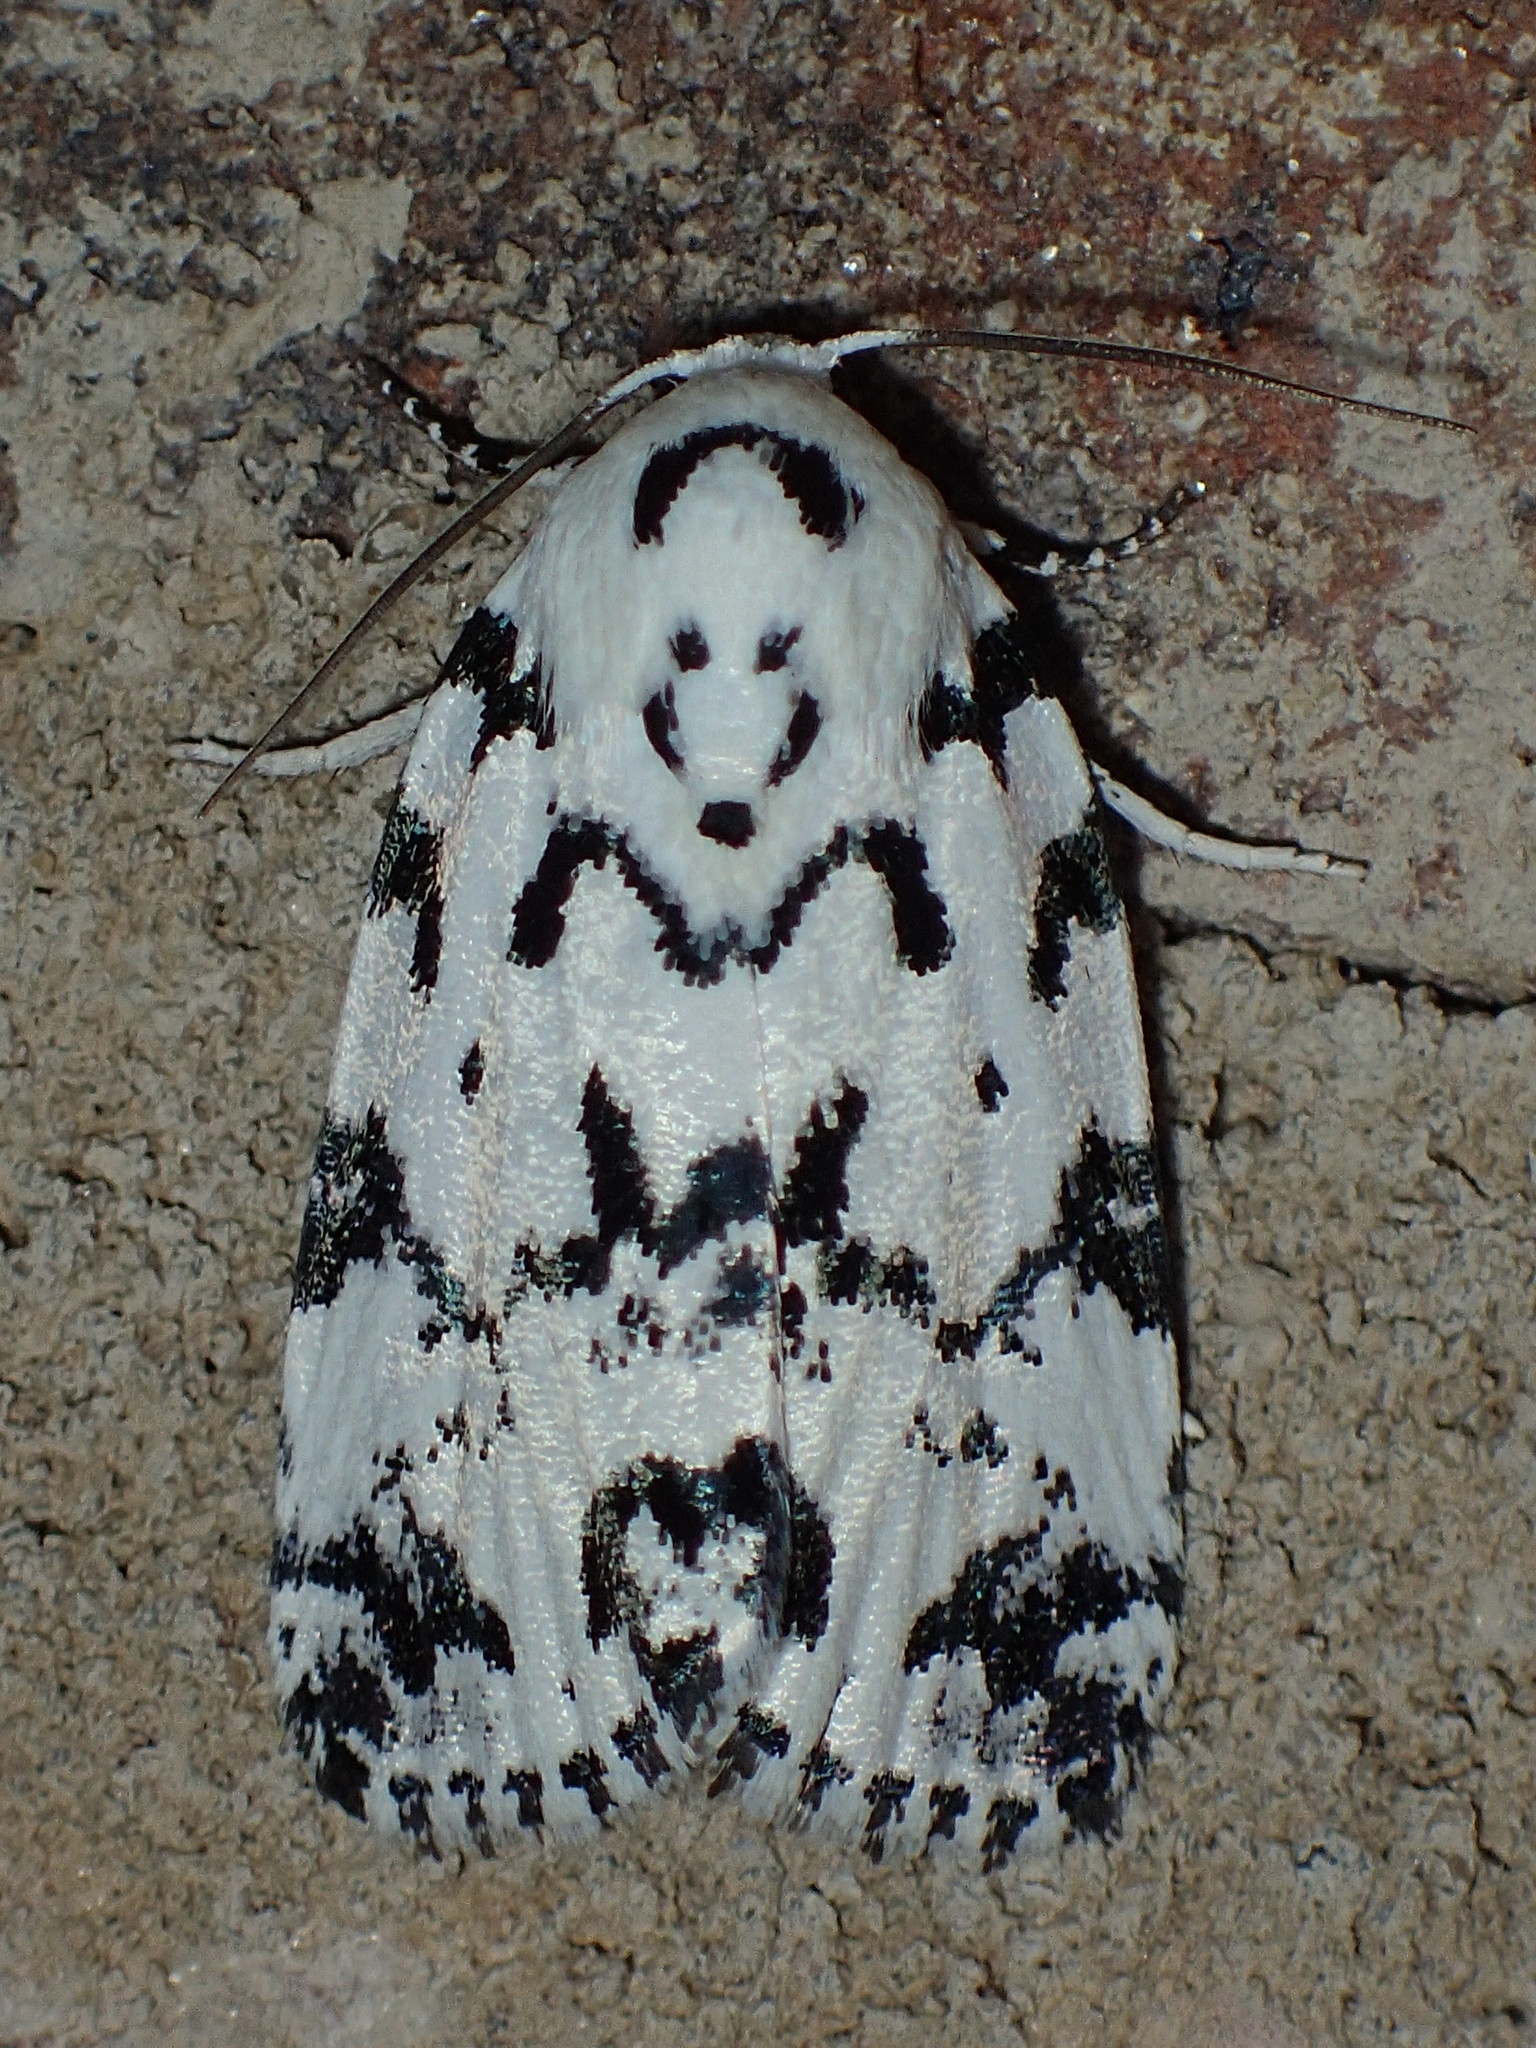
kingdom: Animalia
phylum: Arthropoda
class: Insecta
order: Lepidoptera
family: Noctuidae
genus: Polygrammate
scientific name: Polygrammate hebraeicum
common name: Hebrew moth
